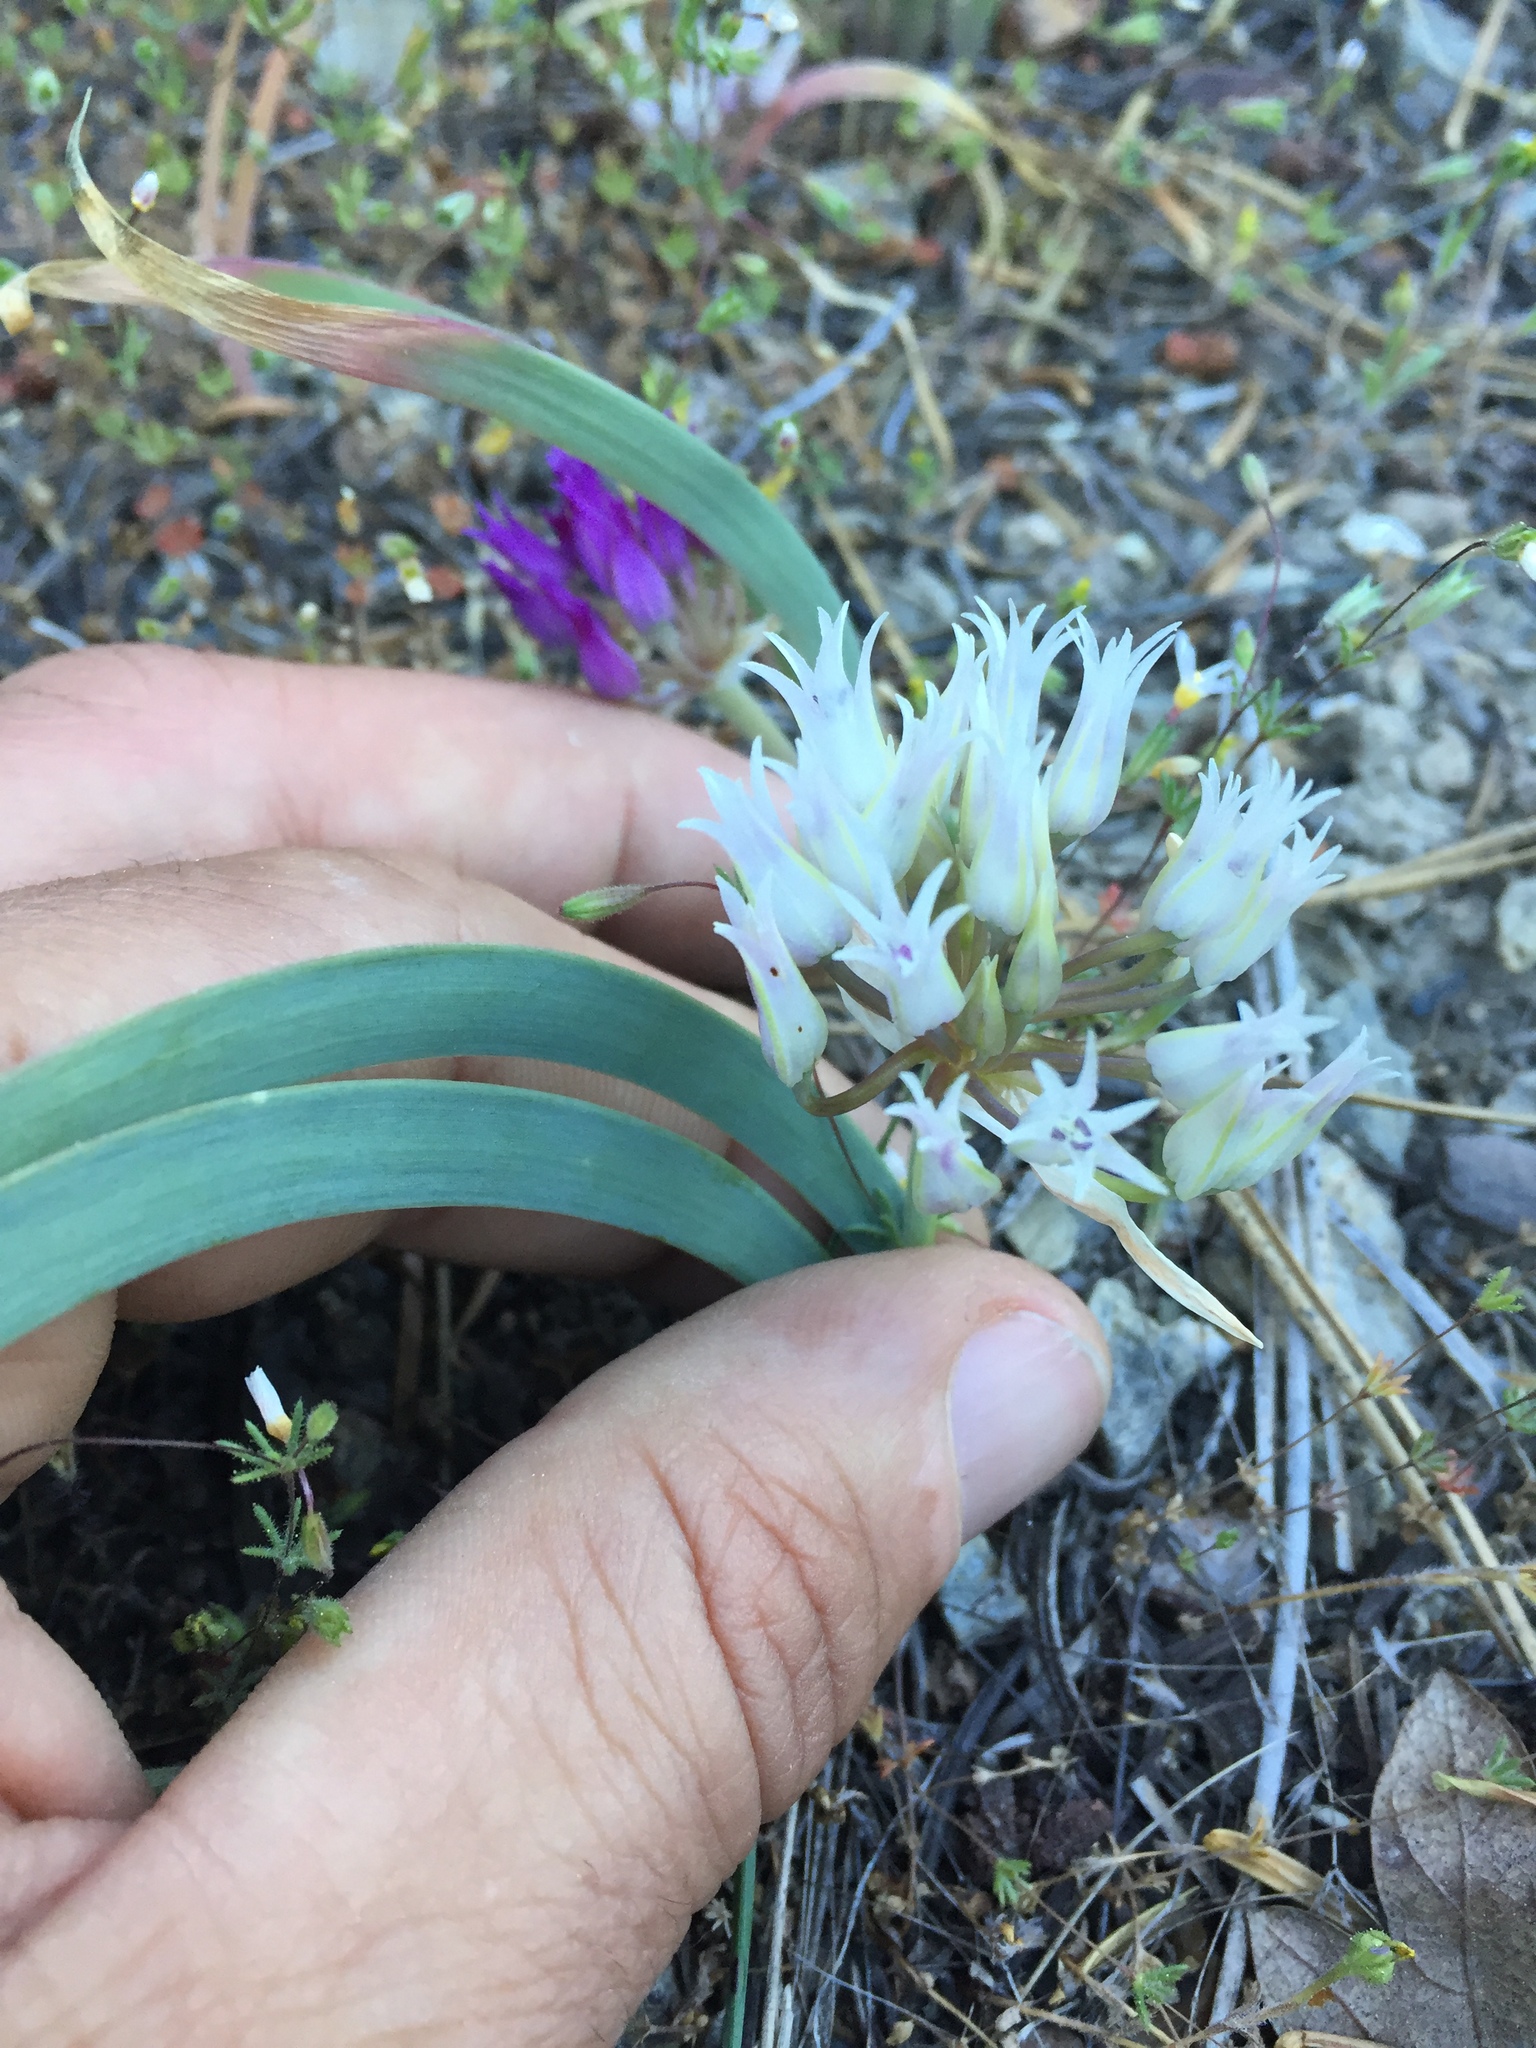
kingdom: Plantae
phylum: Tracheophyta
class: Liliopsida
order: Asparagales
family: Amaryllidaceae
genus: Allium
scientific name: Allium falcifolium
